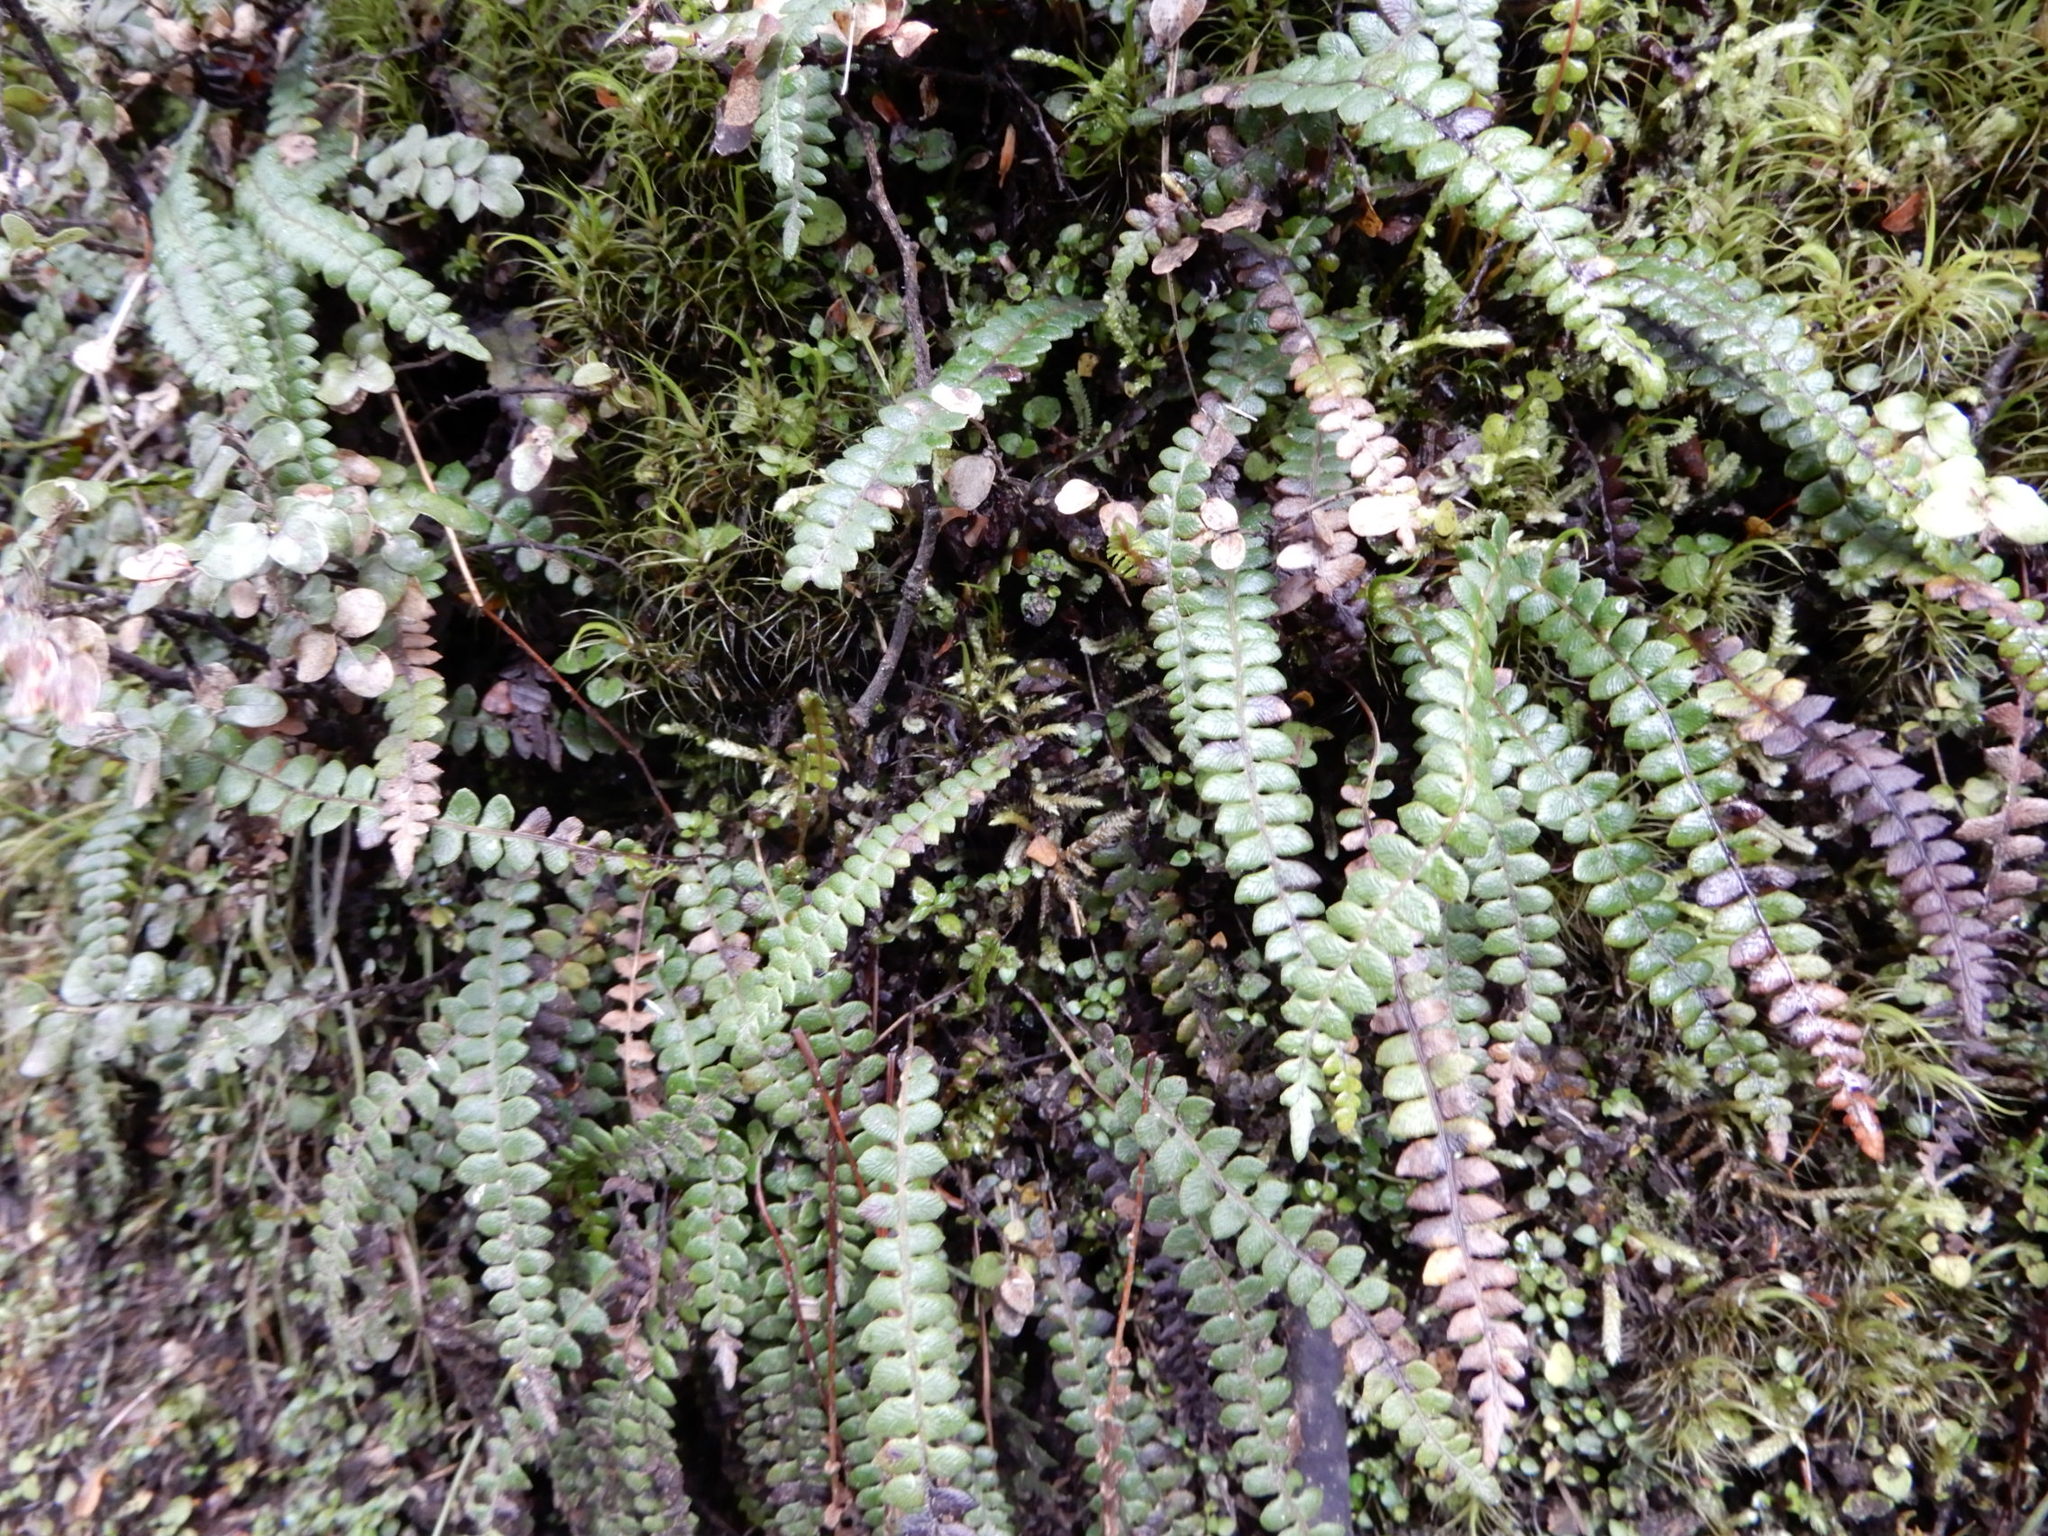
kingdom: Plantae
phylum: Tracheophyta
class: Polypodiopsida
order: Polypodiales
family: Blechnaceae
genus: Austroblechnum
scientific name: Austroblechnum penna-marina
